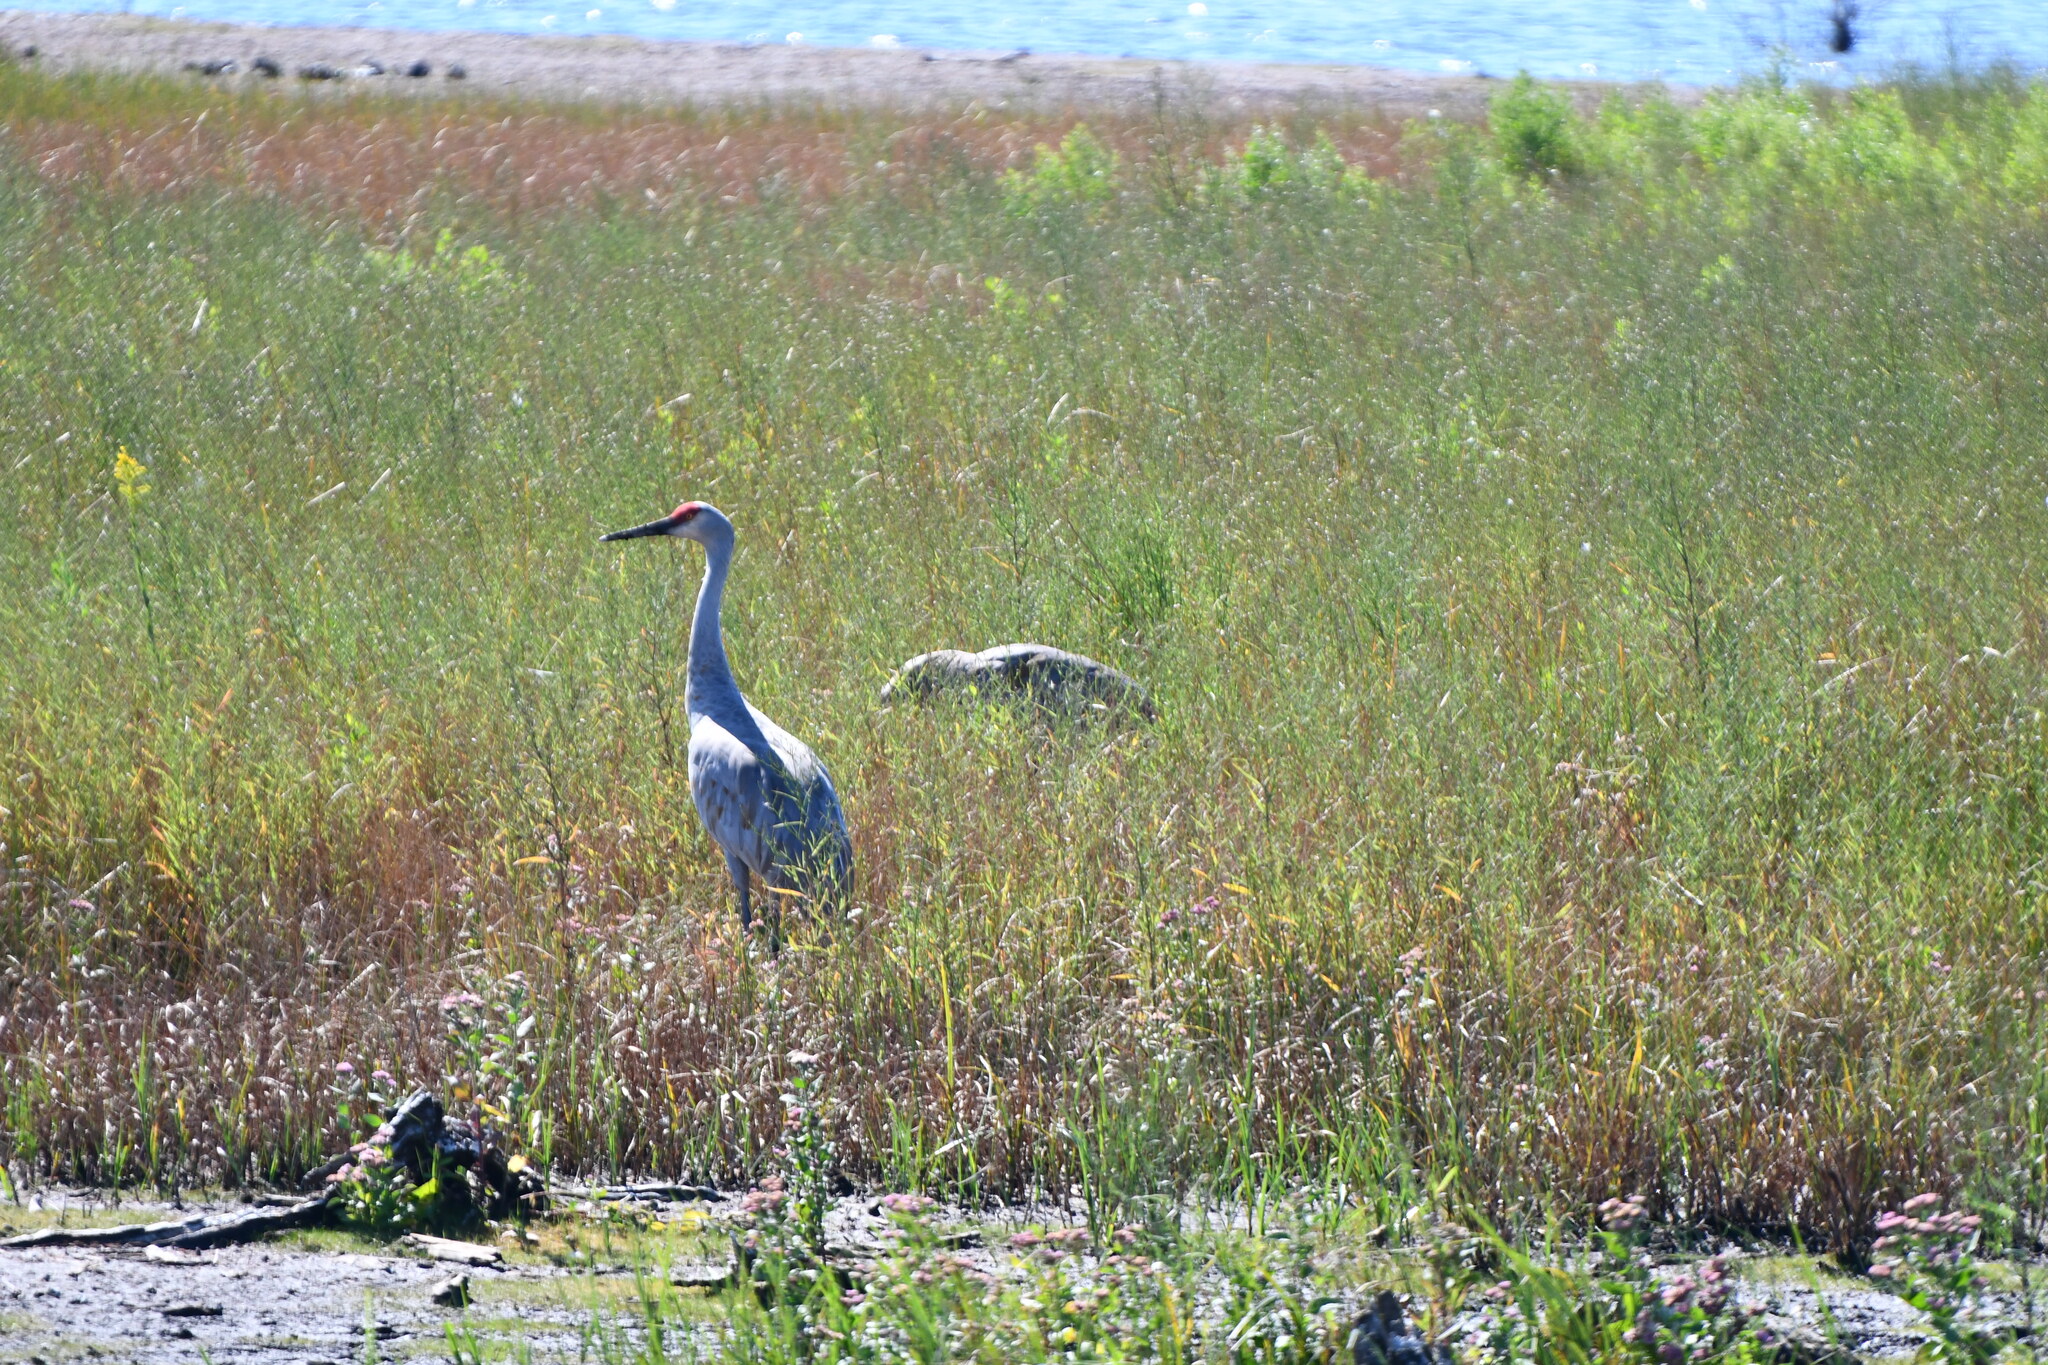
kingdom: Animalia
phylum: Chordata
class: Aves
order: Gruiformes
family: Gruidae
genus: Grus
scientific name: Grus canadensis
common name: Sandhill crane
